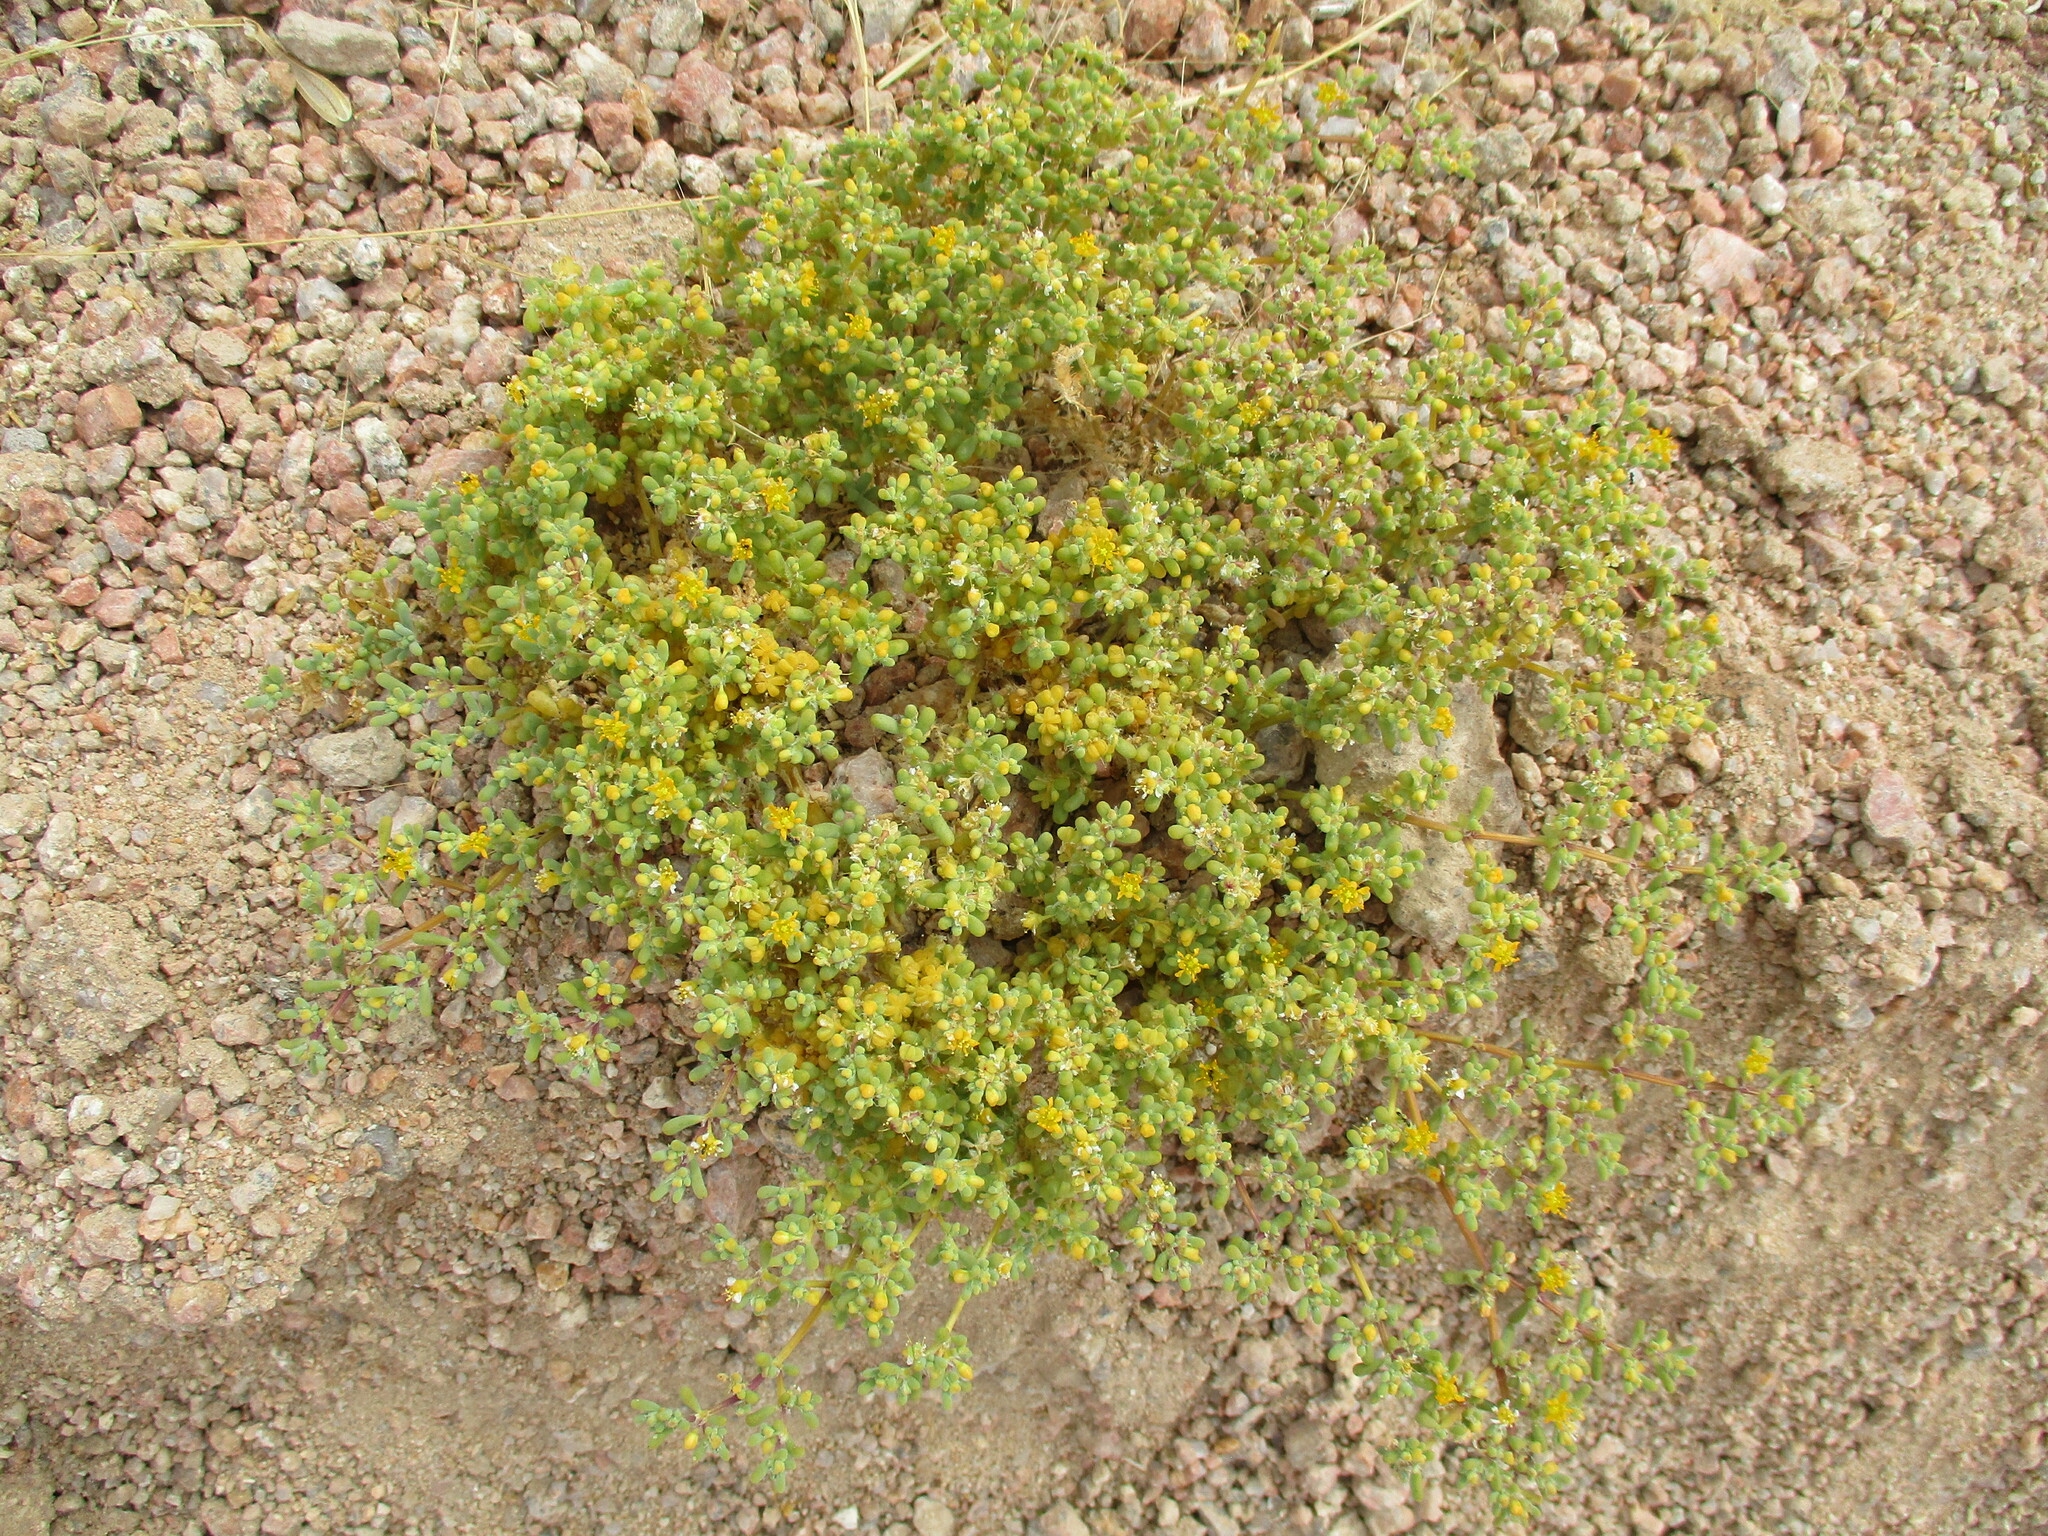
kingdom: Plantae
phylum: Tracheophyta
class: Magnoliopsida
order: Zygophyllales
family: Zygophyllaceae
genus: Tetraena
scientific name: Tetraena simplex
